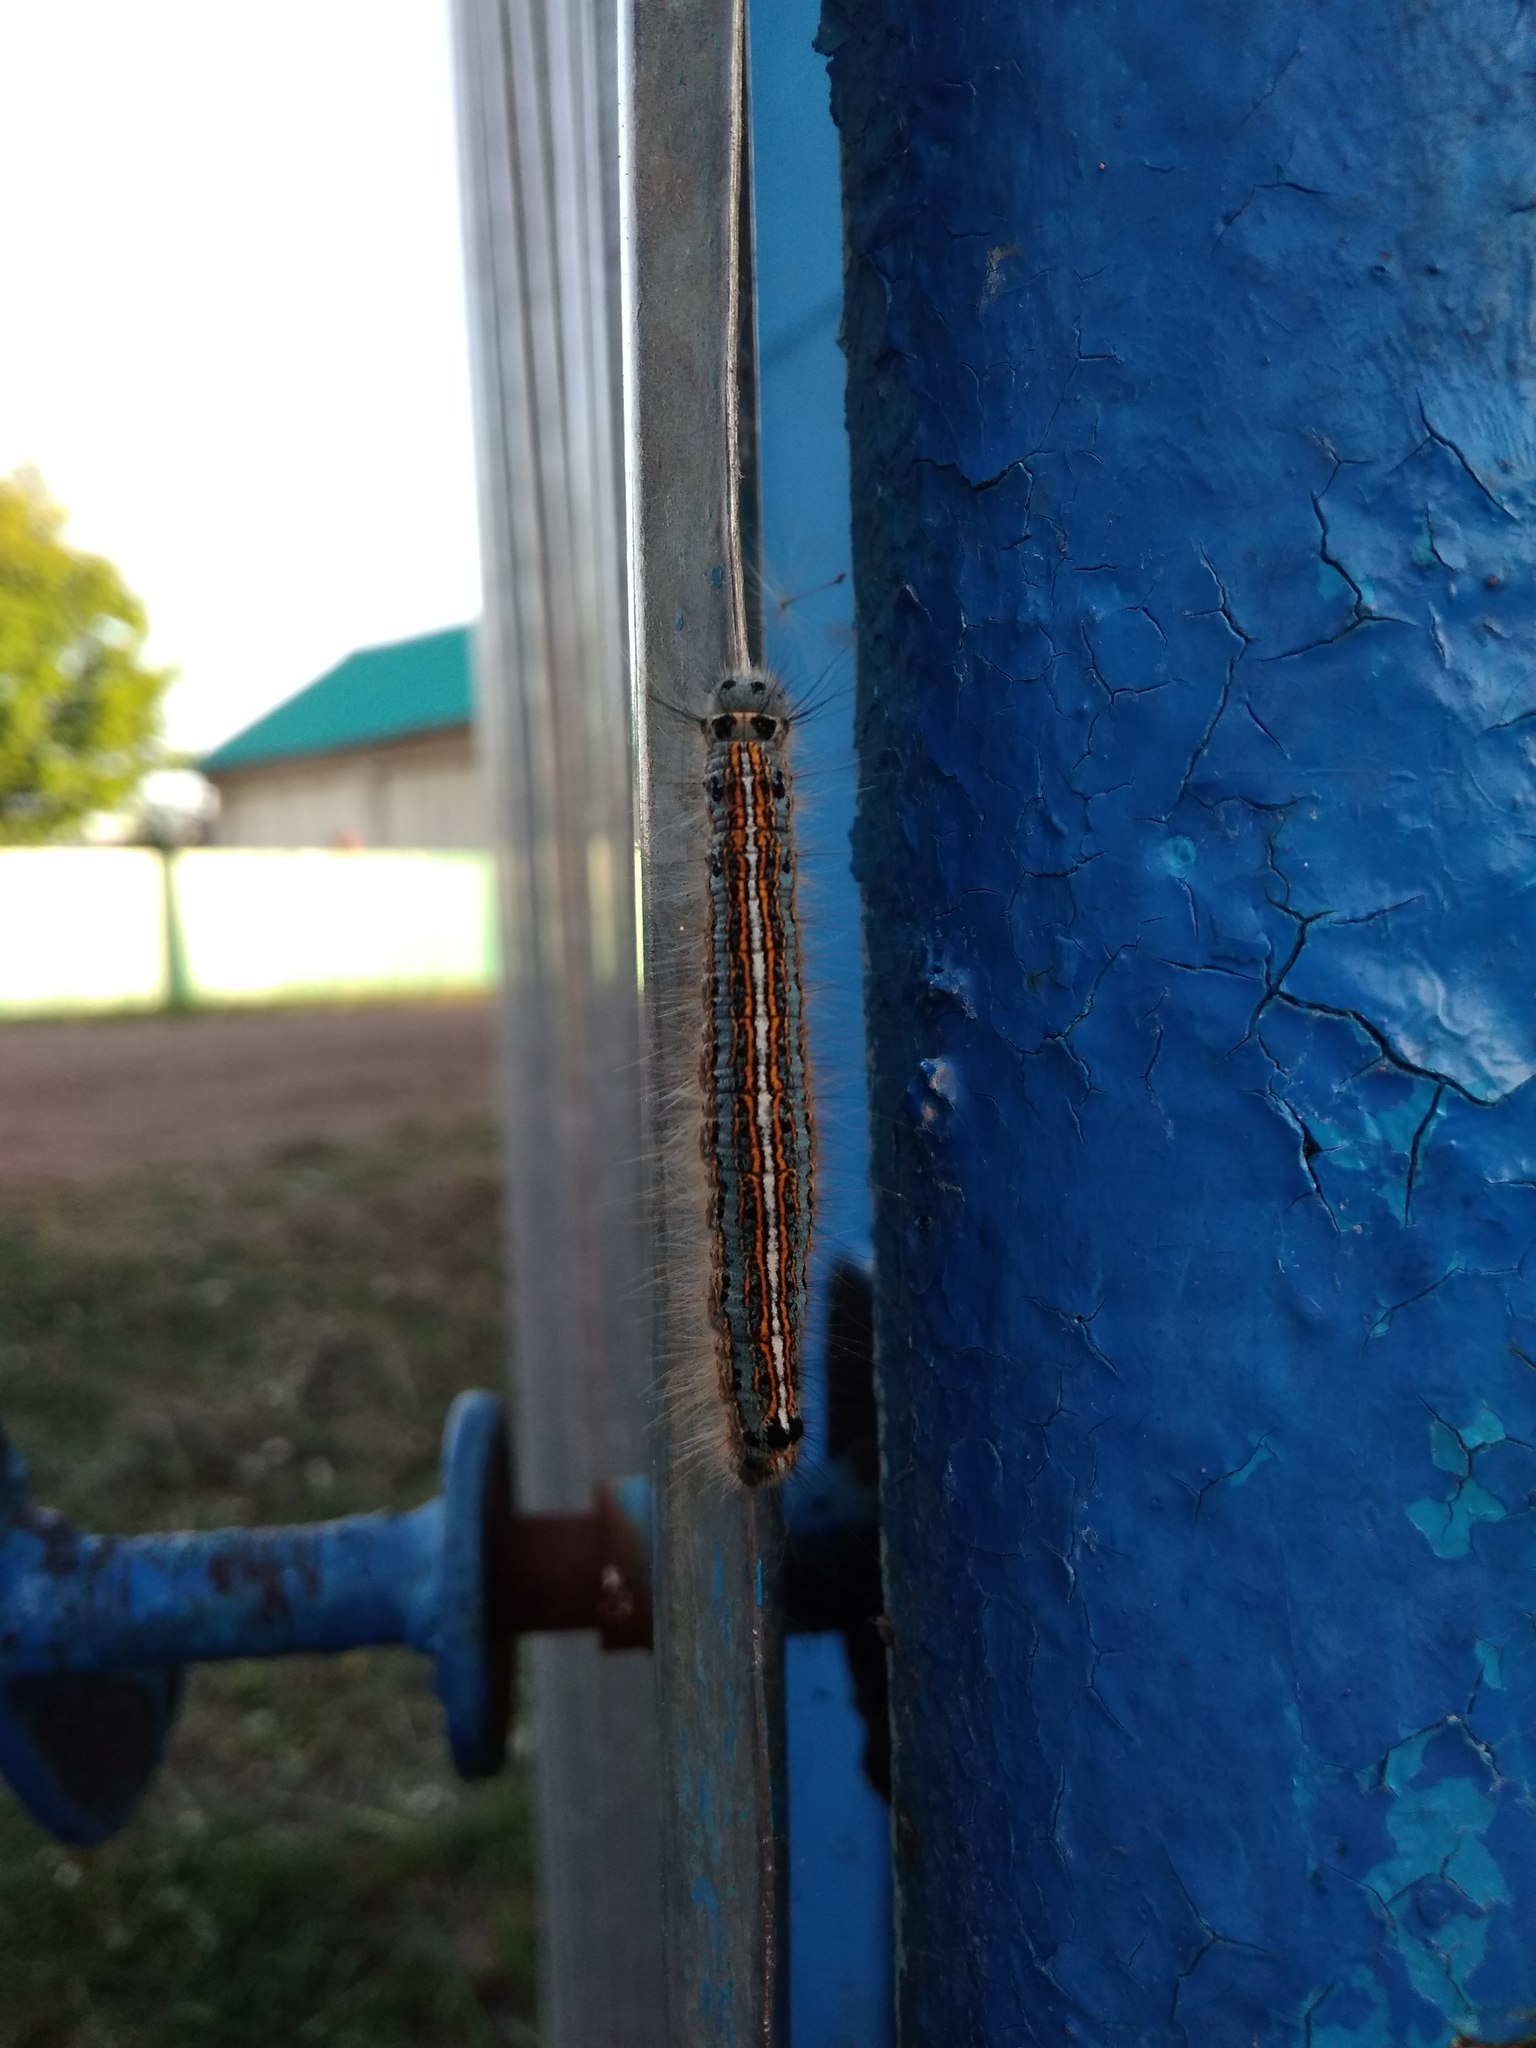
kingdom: Animalia
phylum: Arthropoda
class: Insecta
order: Lepidoptera
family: Lasiocampidae
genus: Malacosoma
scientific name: Malacosoma neustria
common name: The lackey
